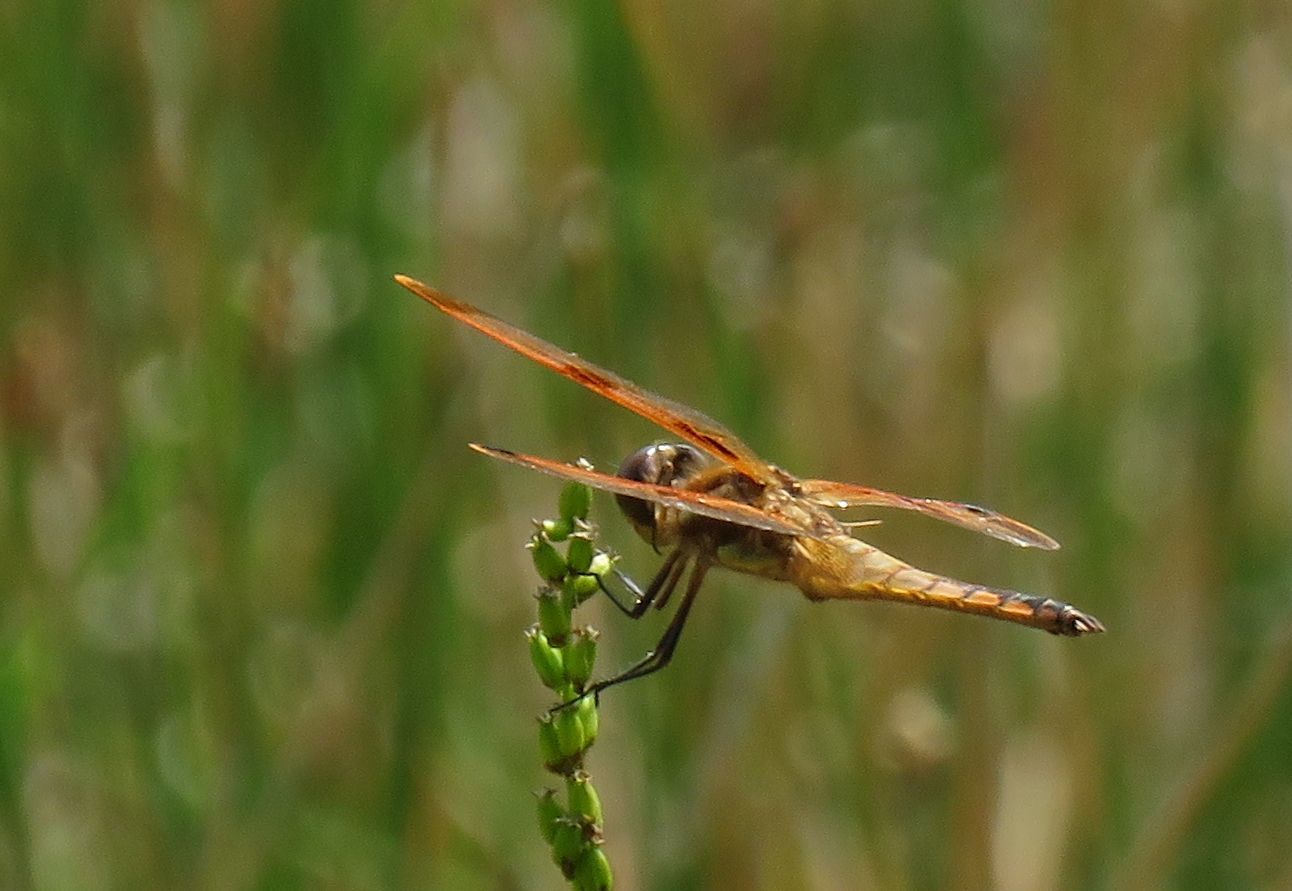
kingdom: Animalia
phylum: Arthropoda
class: Insecta
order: Odonata
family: Libellulidae
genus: Libellula
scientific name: Libellula semifasciata
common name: Painted skimmer
